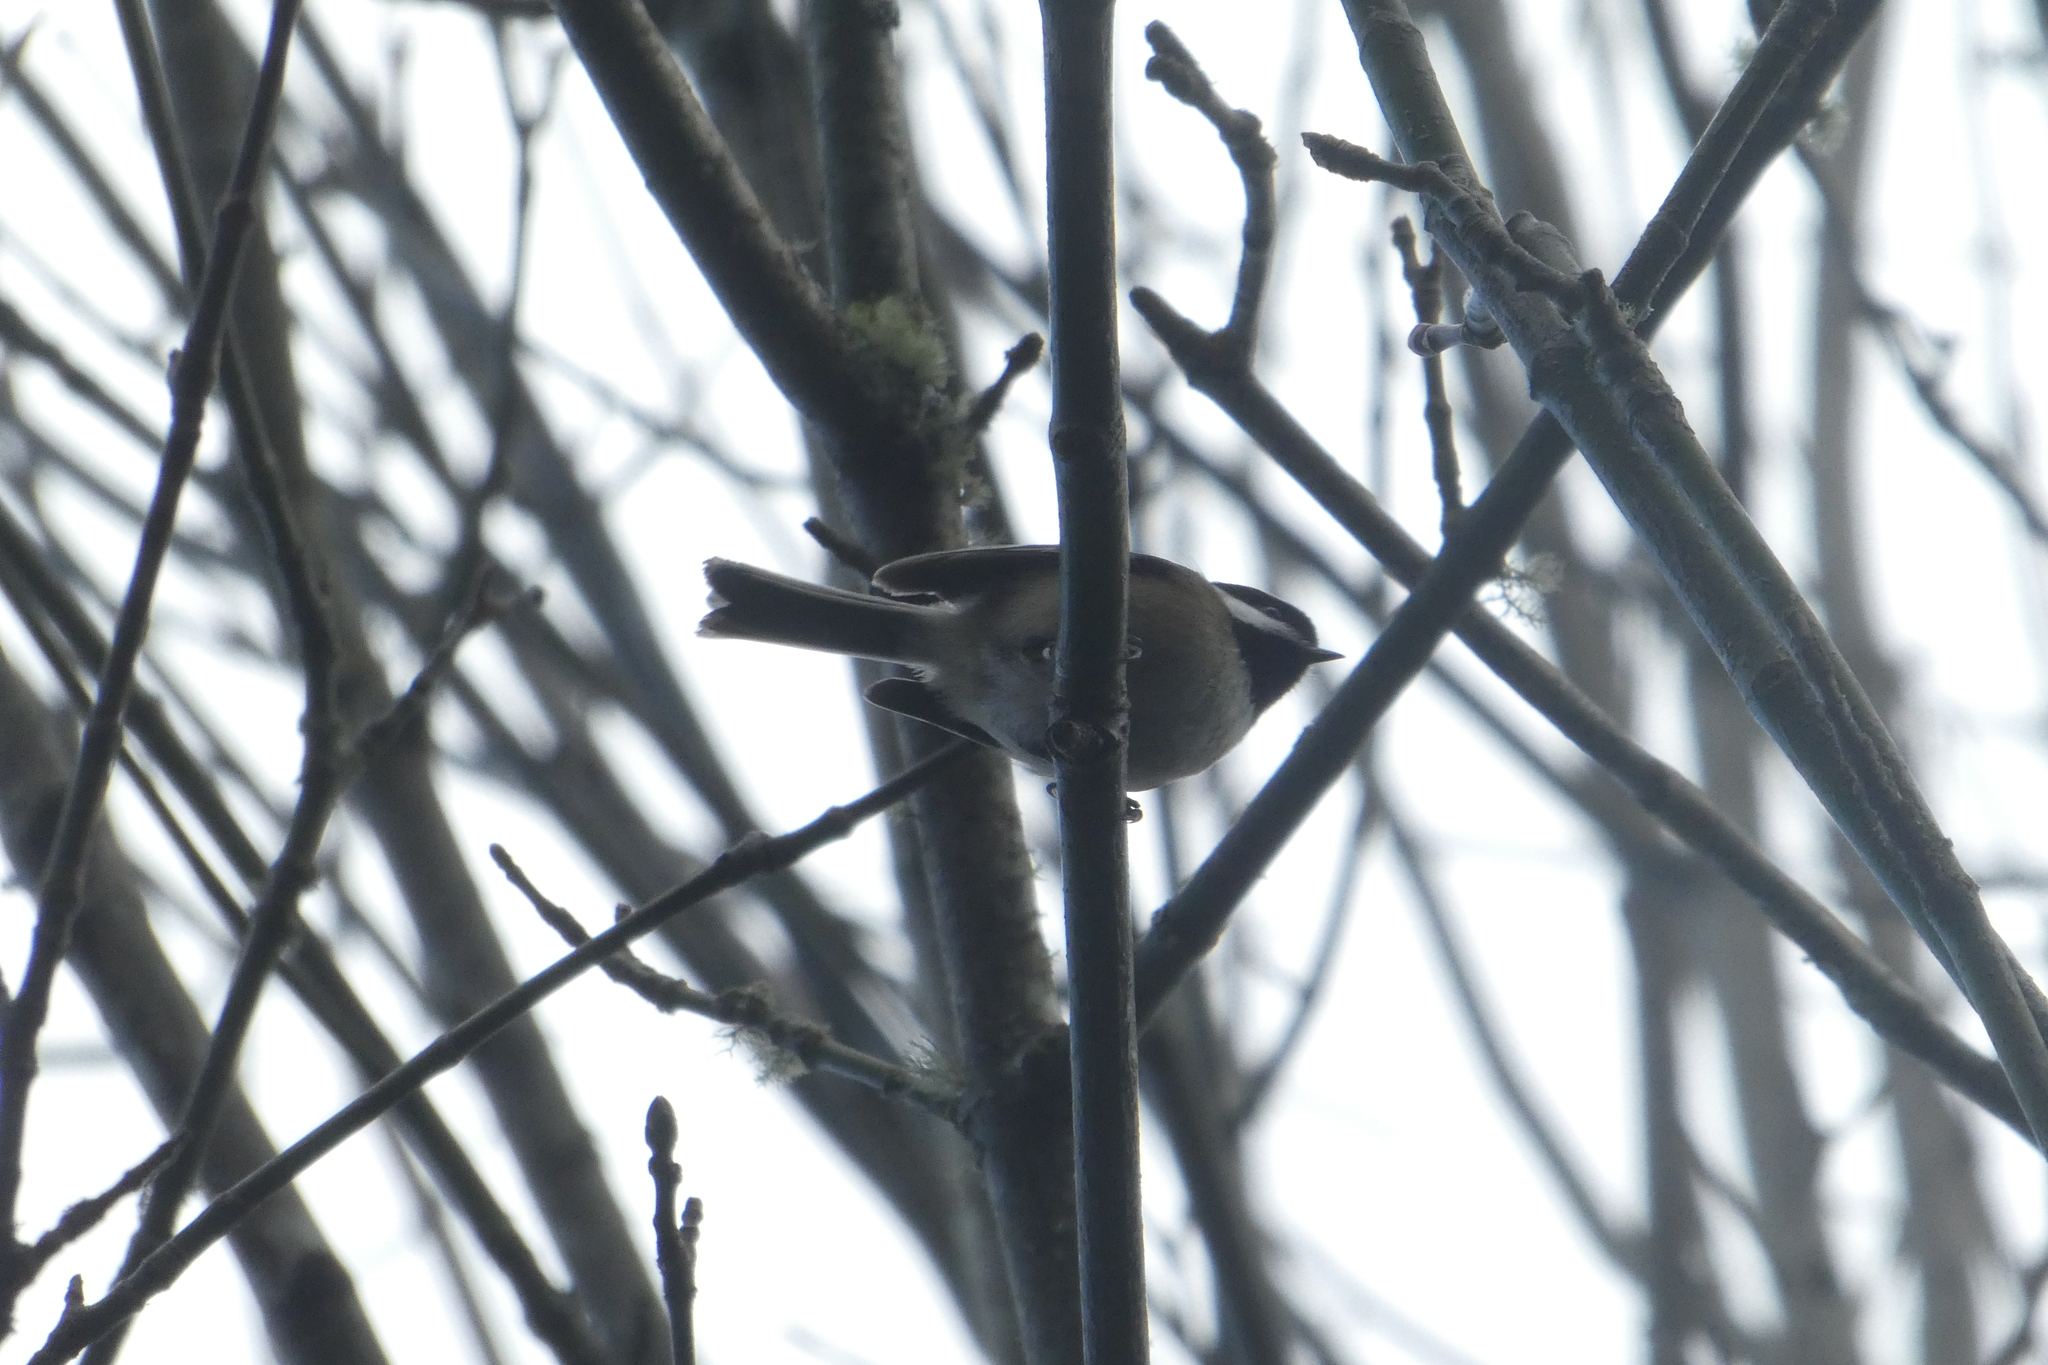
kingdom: Animalia
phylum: Chordata
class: Aves
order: Passeriformes
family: Paridae
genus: Poecile
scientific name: Poecile atricapillus
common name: Black-capped chickadee
